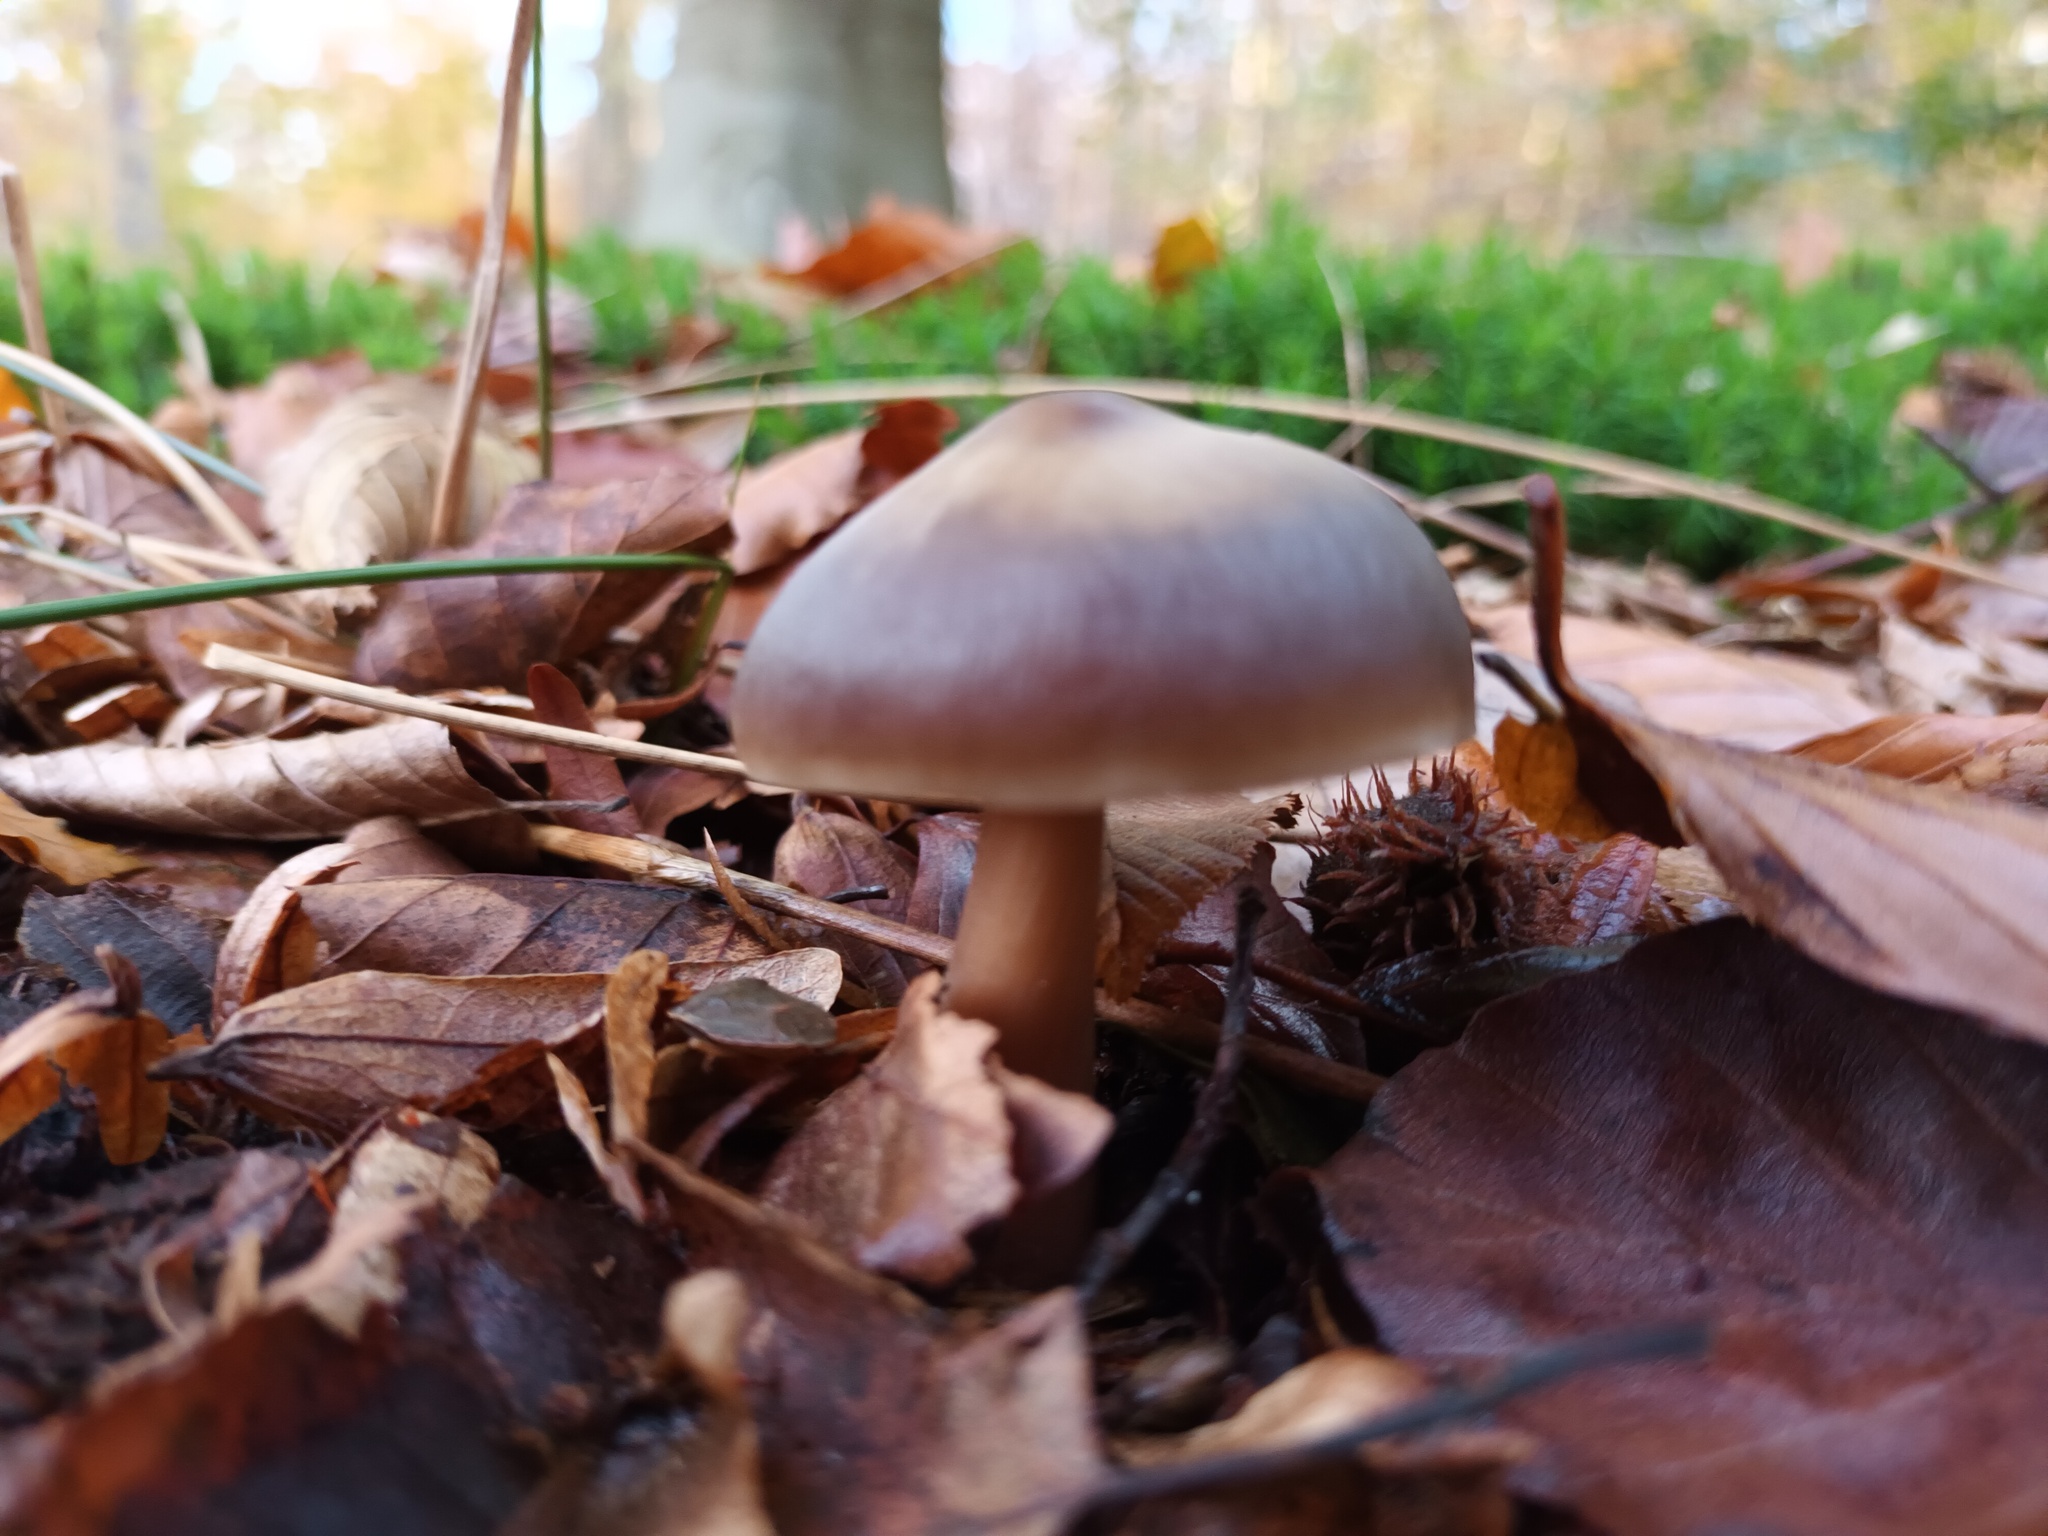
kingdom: Fungi
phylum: Basidiomycota
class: Agaricomycetes
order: Agaricales
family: Omphalotaceae
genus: Rhodocollybia
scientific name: Rhodocollybia butyracea
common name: Butter cap
